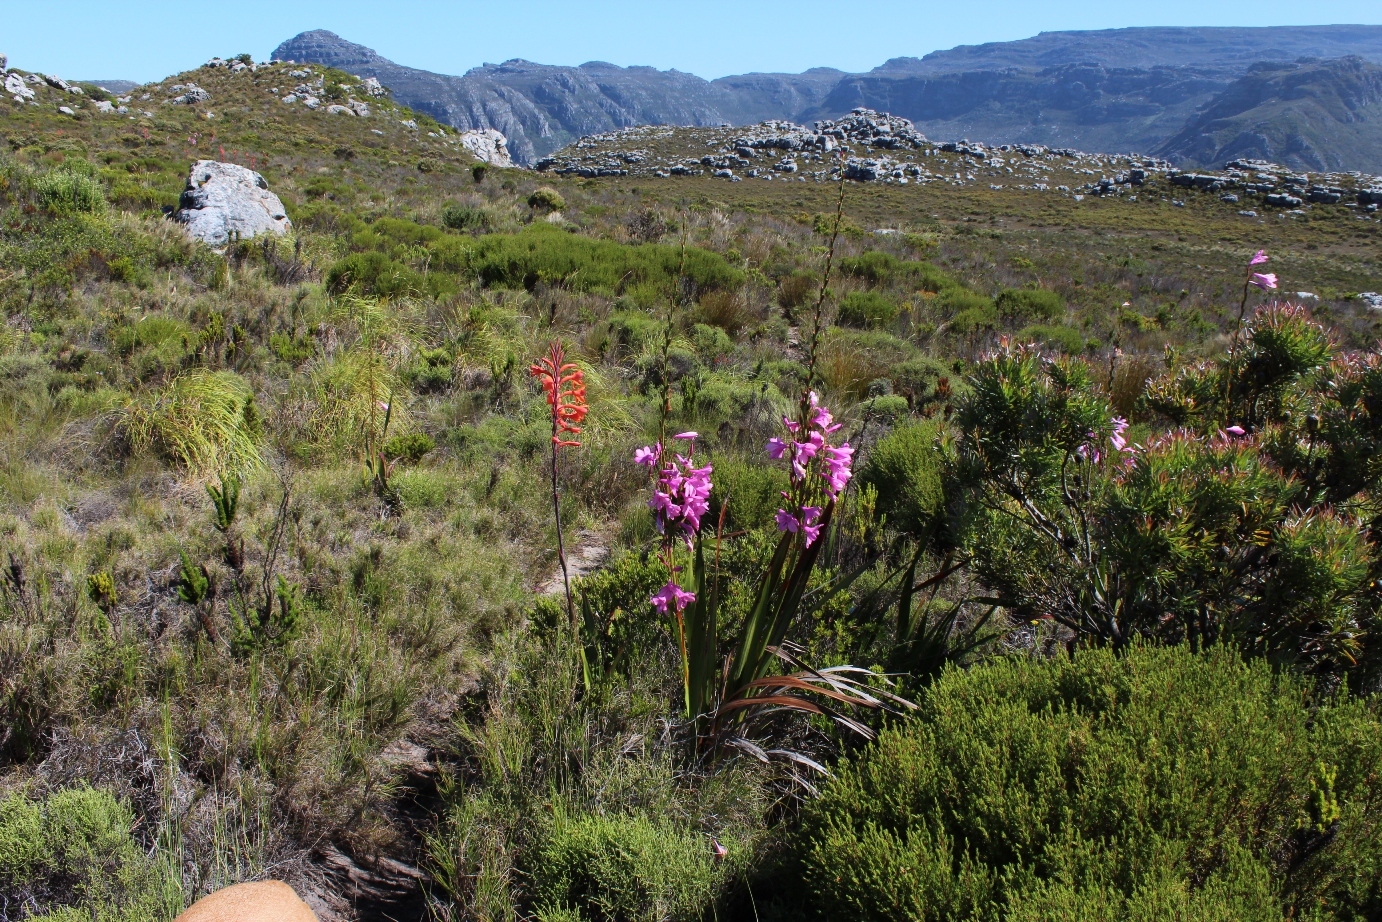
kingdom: Plantae
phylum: Tracheophyta
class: Liliopsida
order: Asparagales
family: Iridaceae
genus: Watsonia
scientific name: Watsonia tabularis
